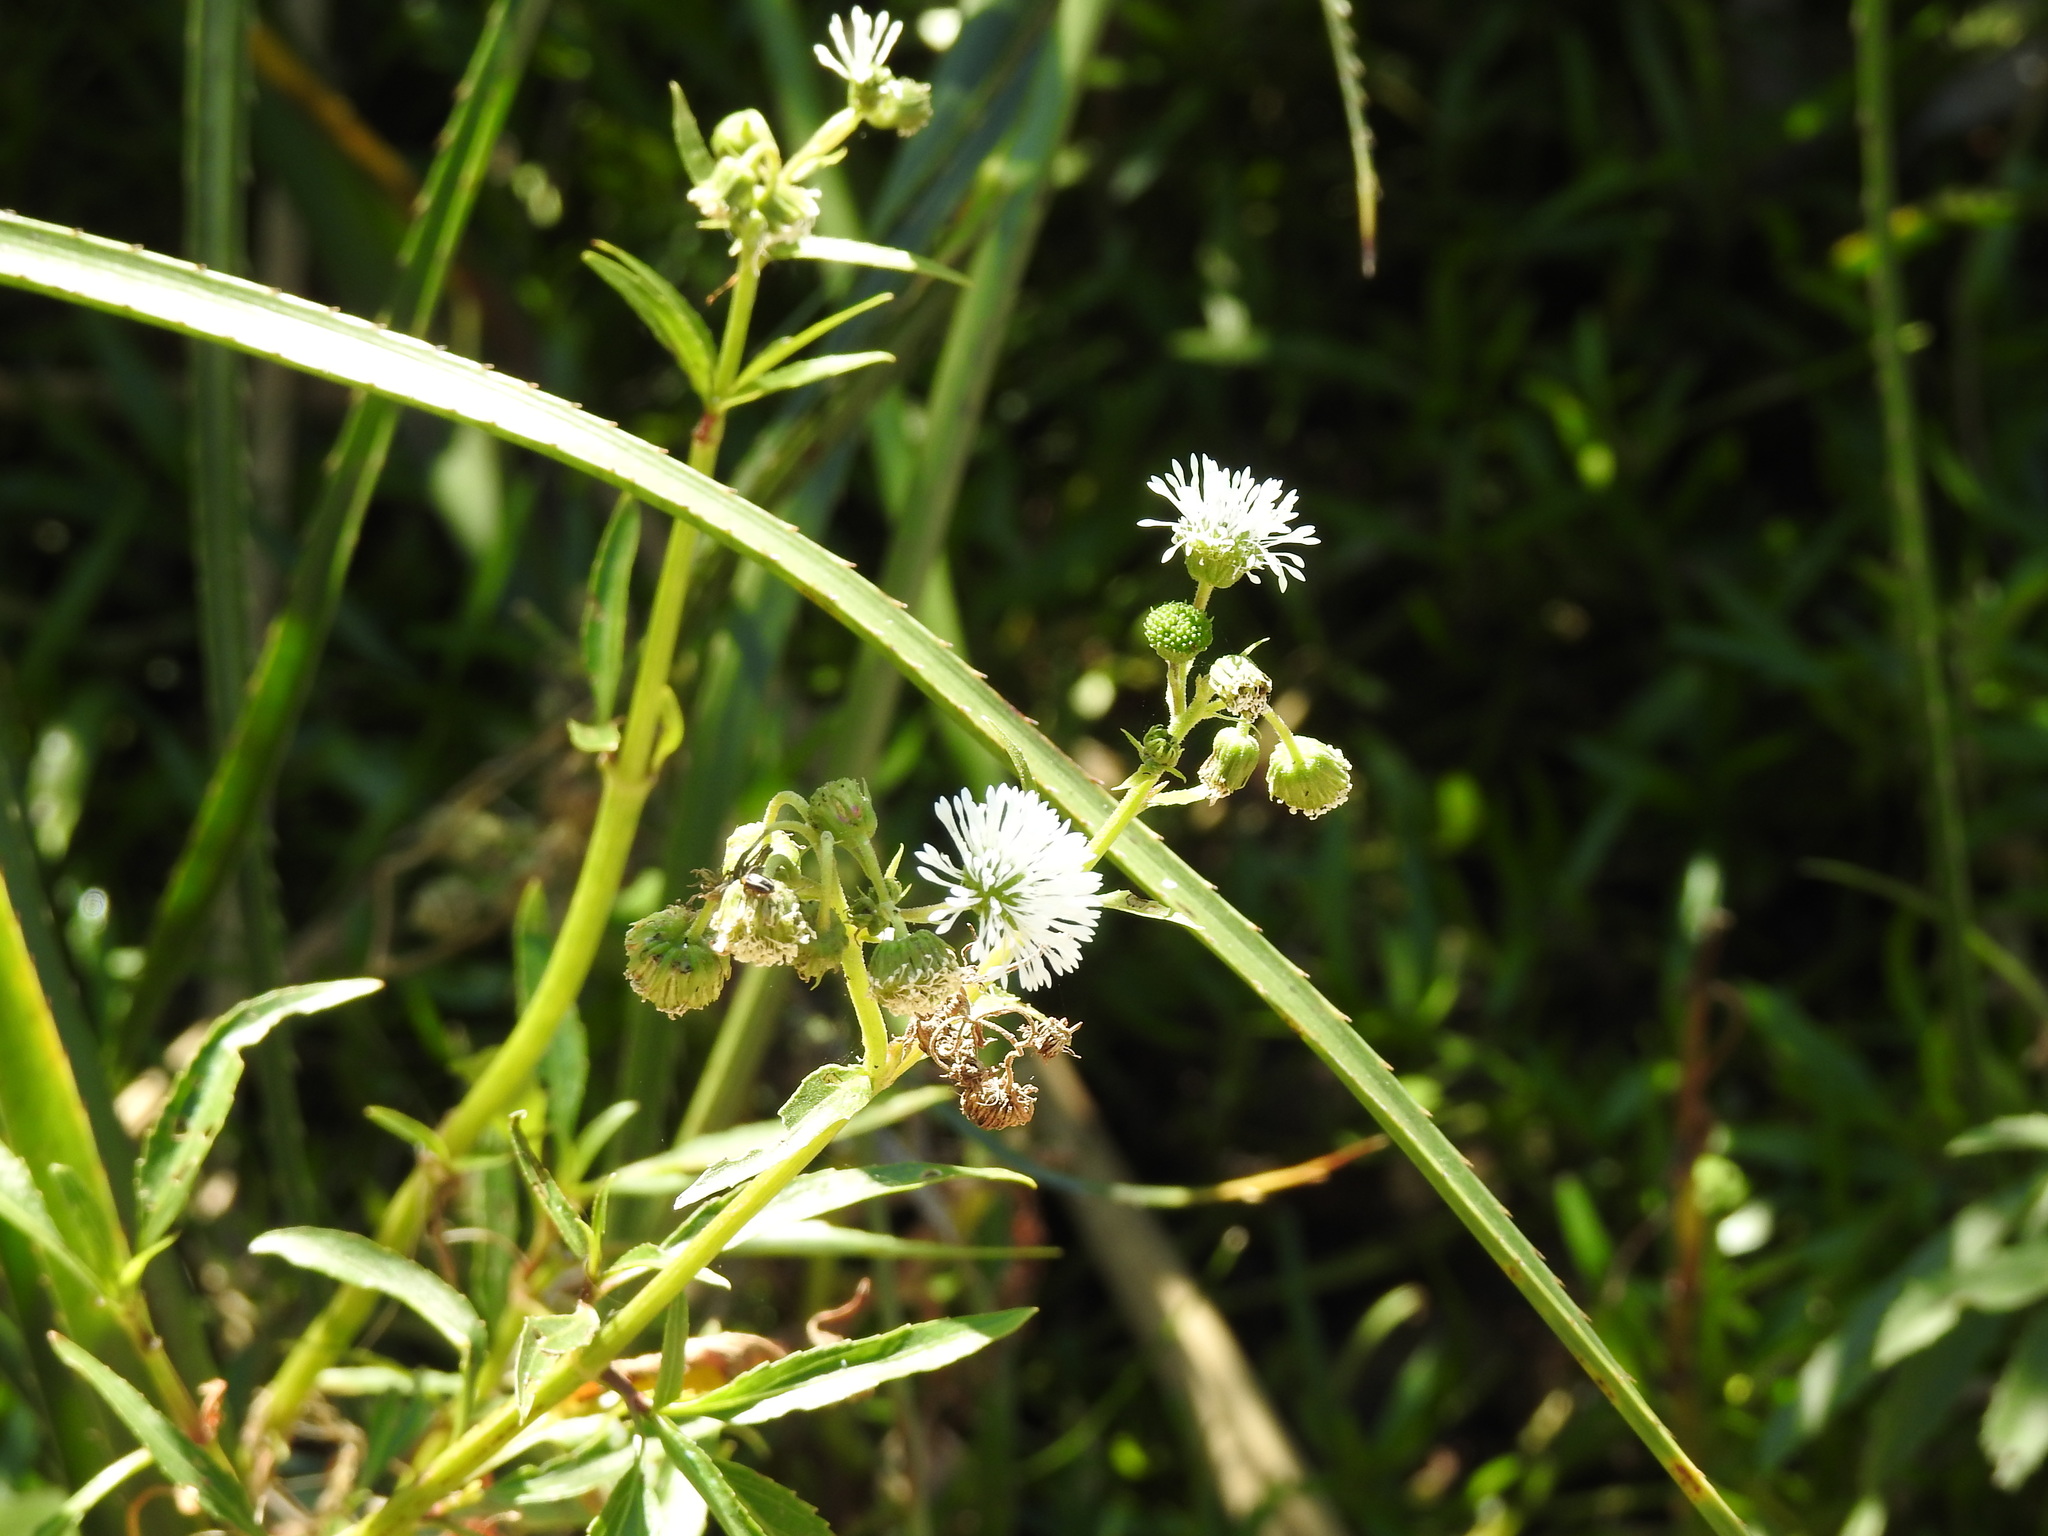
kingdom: Plantae
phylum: Tracheophyta
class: Magnoliopsida
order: Asterales
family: Asteraceae
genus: Gymnocoronis
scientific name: Gymnocoronis spilanthoides
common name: Senegal teaplant
